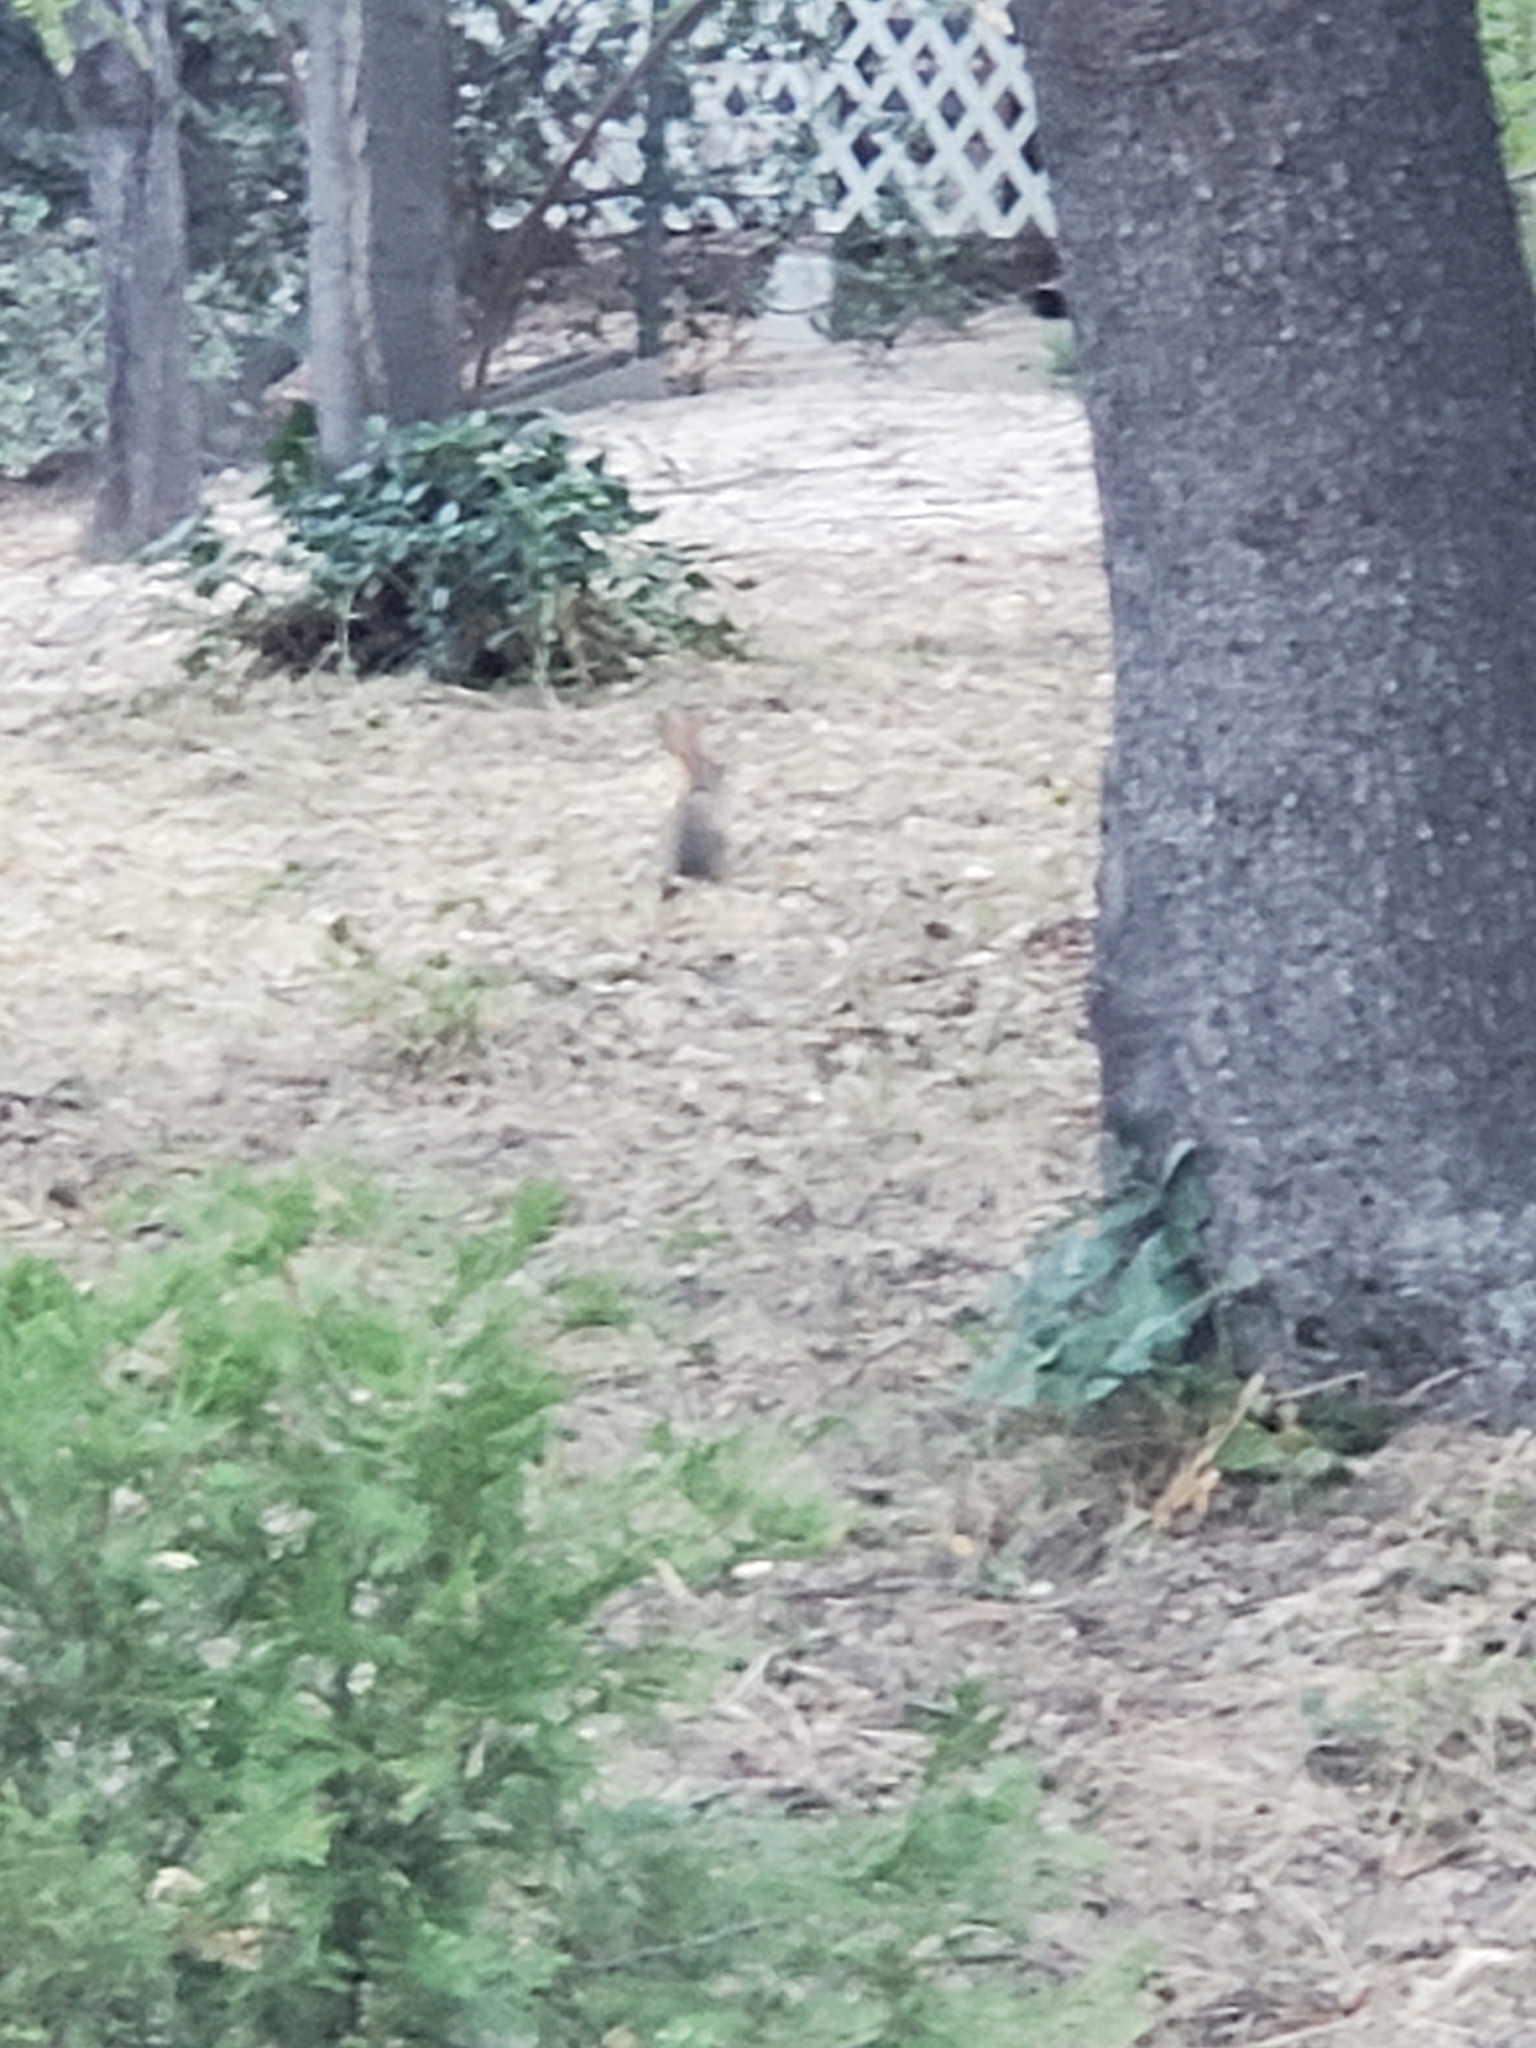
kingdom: Animalia
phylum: Chordata
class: Mammalia
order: Lagomorpha
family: Leporidae
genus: Sylvilagus
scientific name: Sylvilagus audubonii
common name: Desert cottontail
